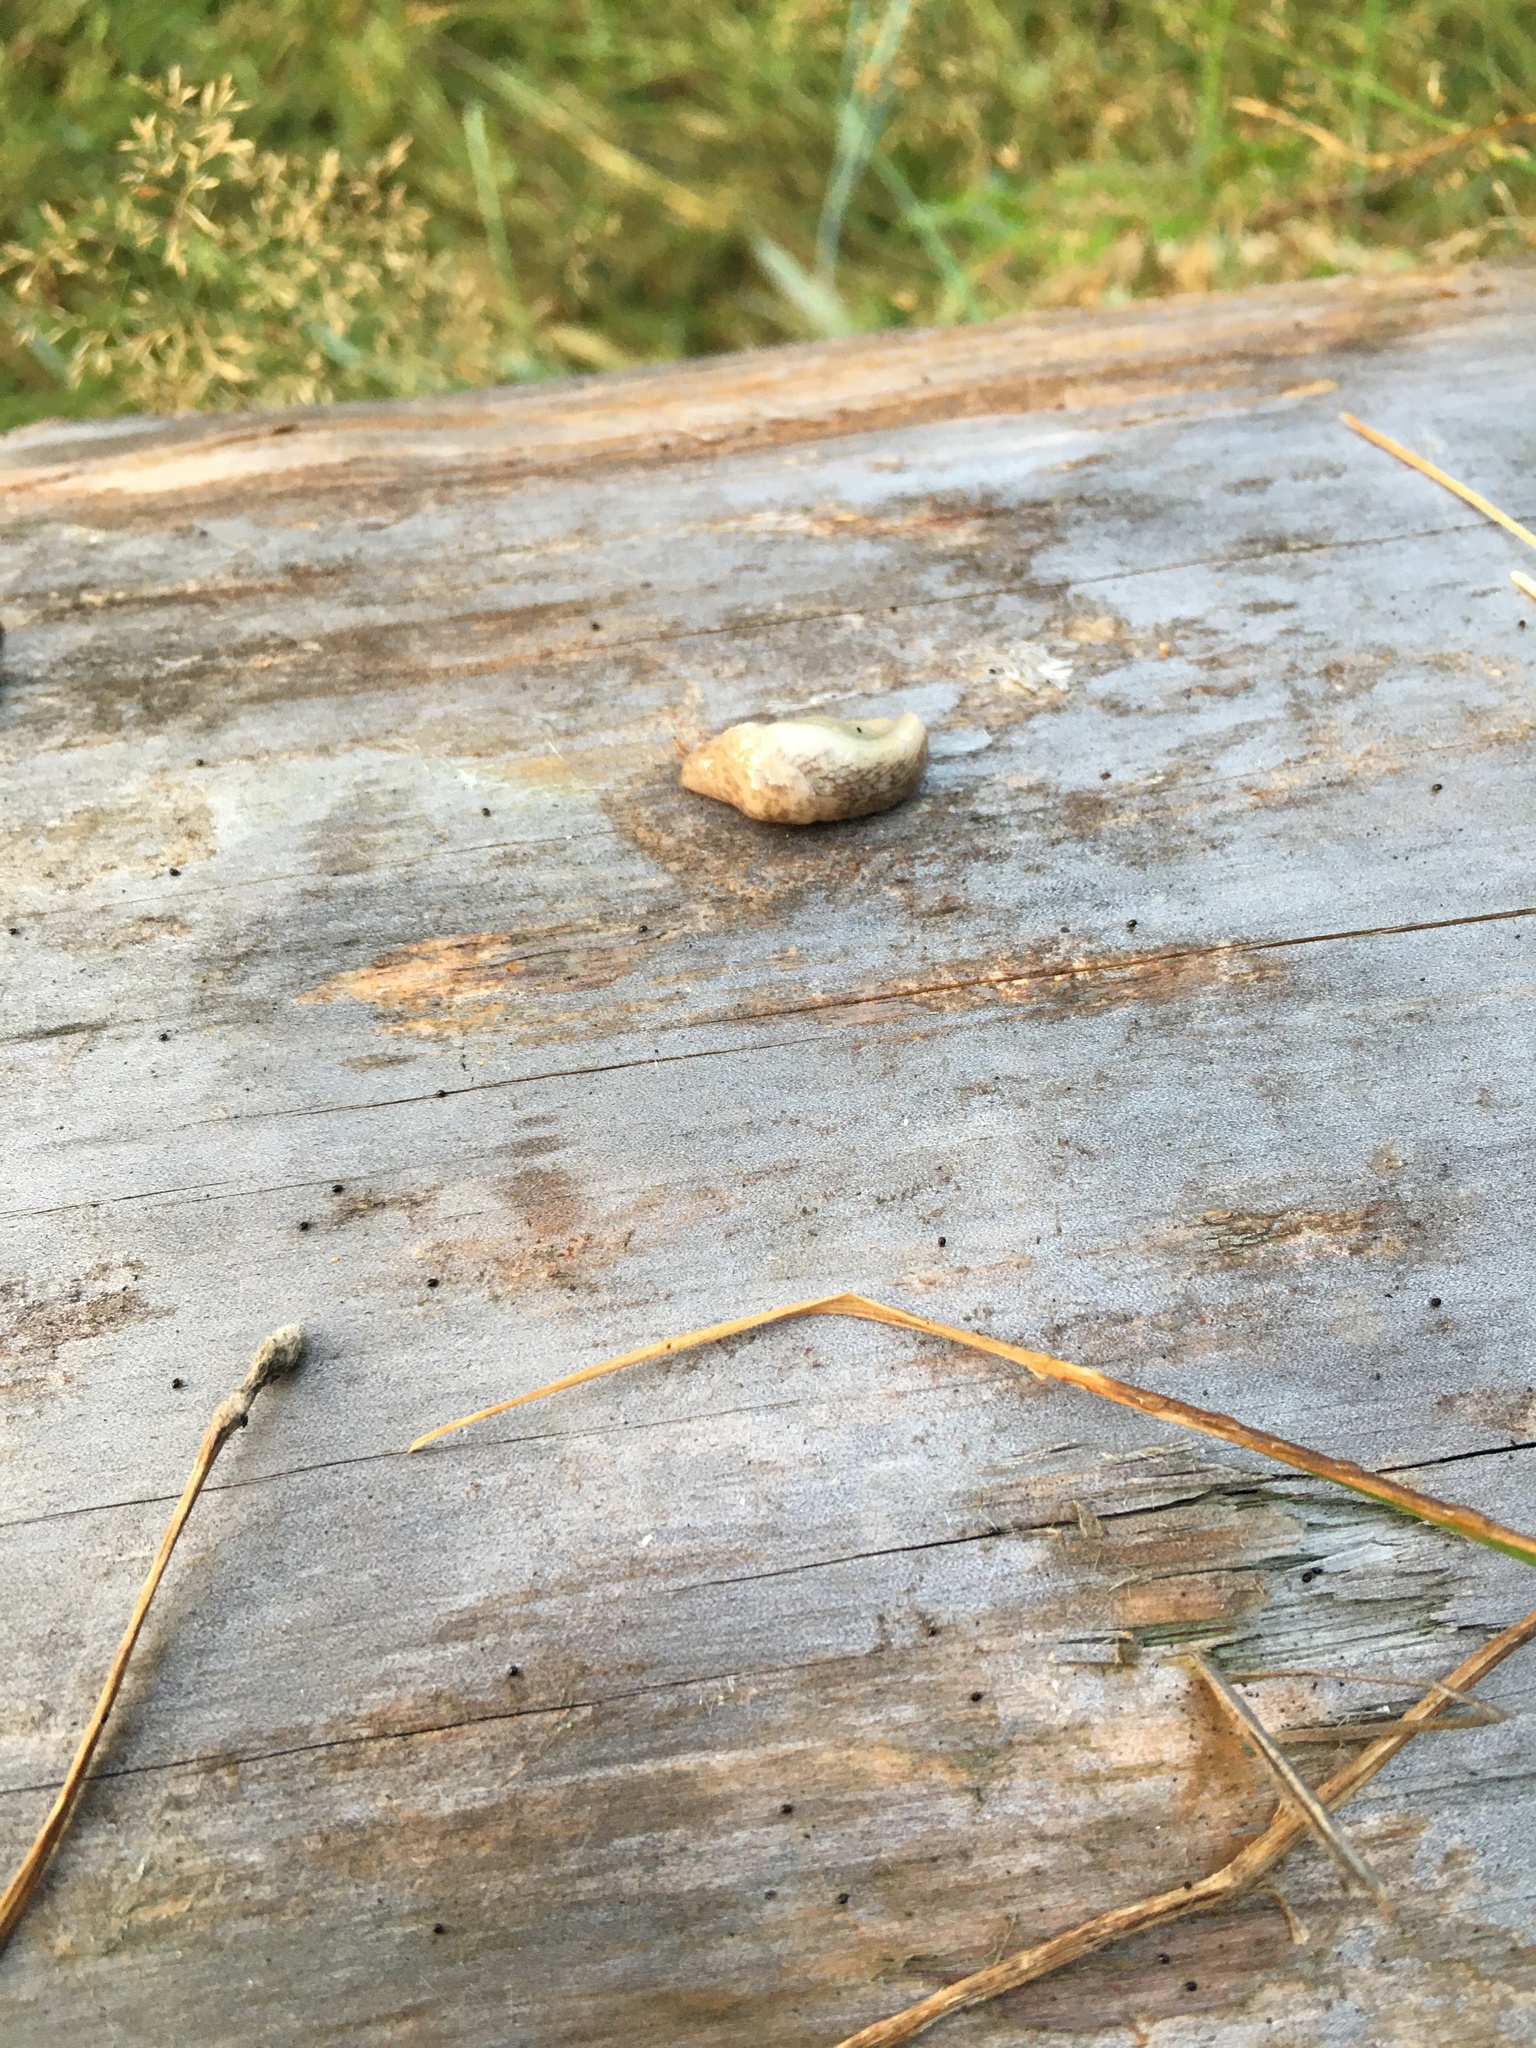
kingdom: Animalia
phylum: Mollusca
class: Gastropoda
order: Stylommatophora
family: Agriolimacidae
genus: Deroceras
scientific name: Deroceras reticulatum
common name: Gray field slug
